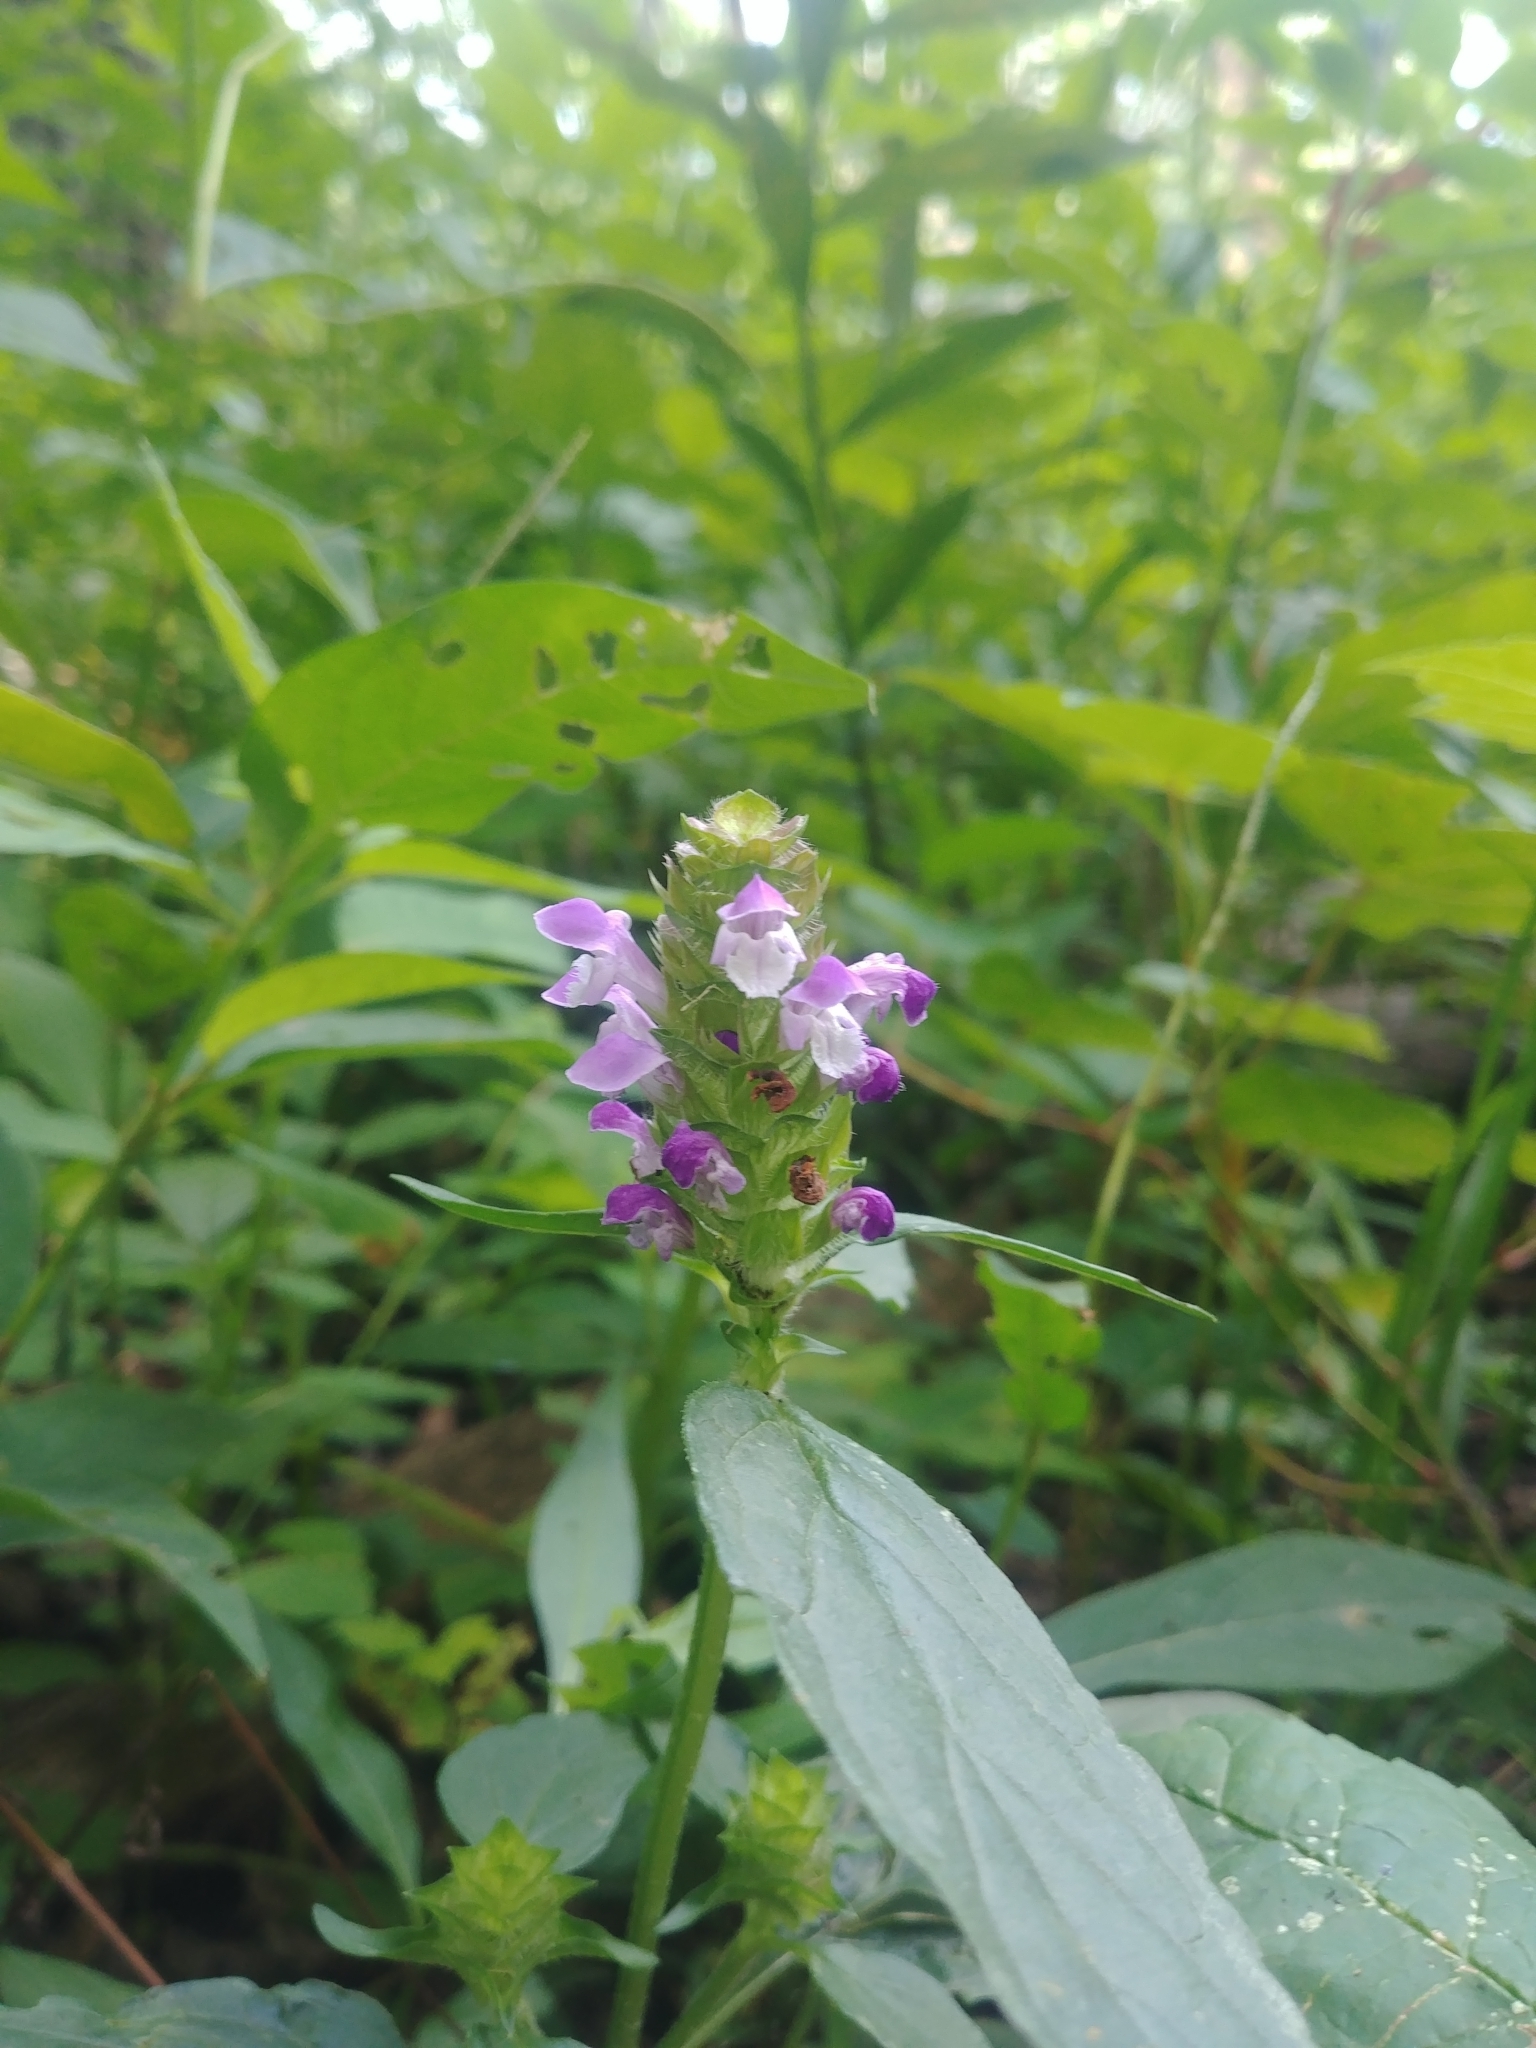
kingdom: Plantae
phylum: Tracheophyta
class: Magnoliopsida
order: Lamiales
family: Lamiaceae
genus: Prunella
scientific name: Prunella vulgaris
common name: Heal-all
